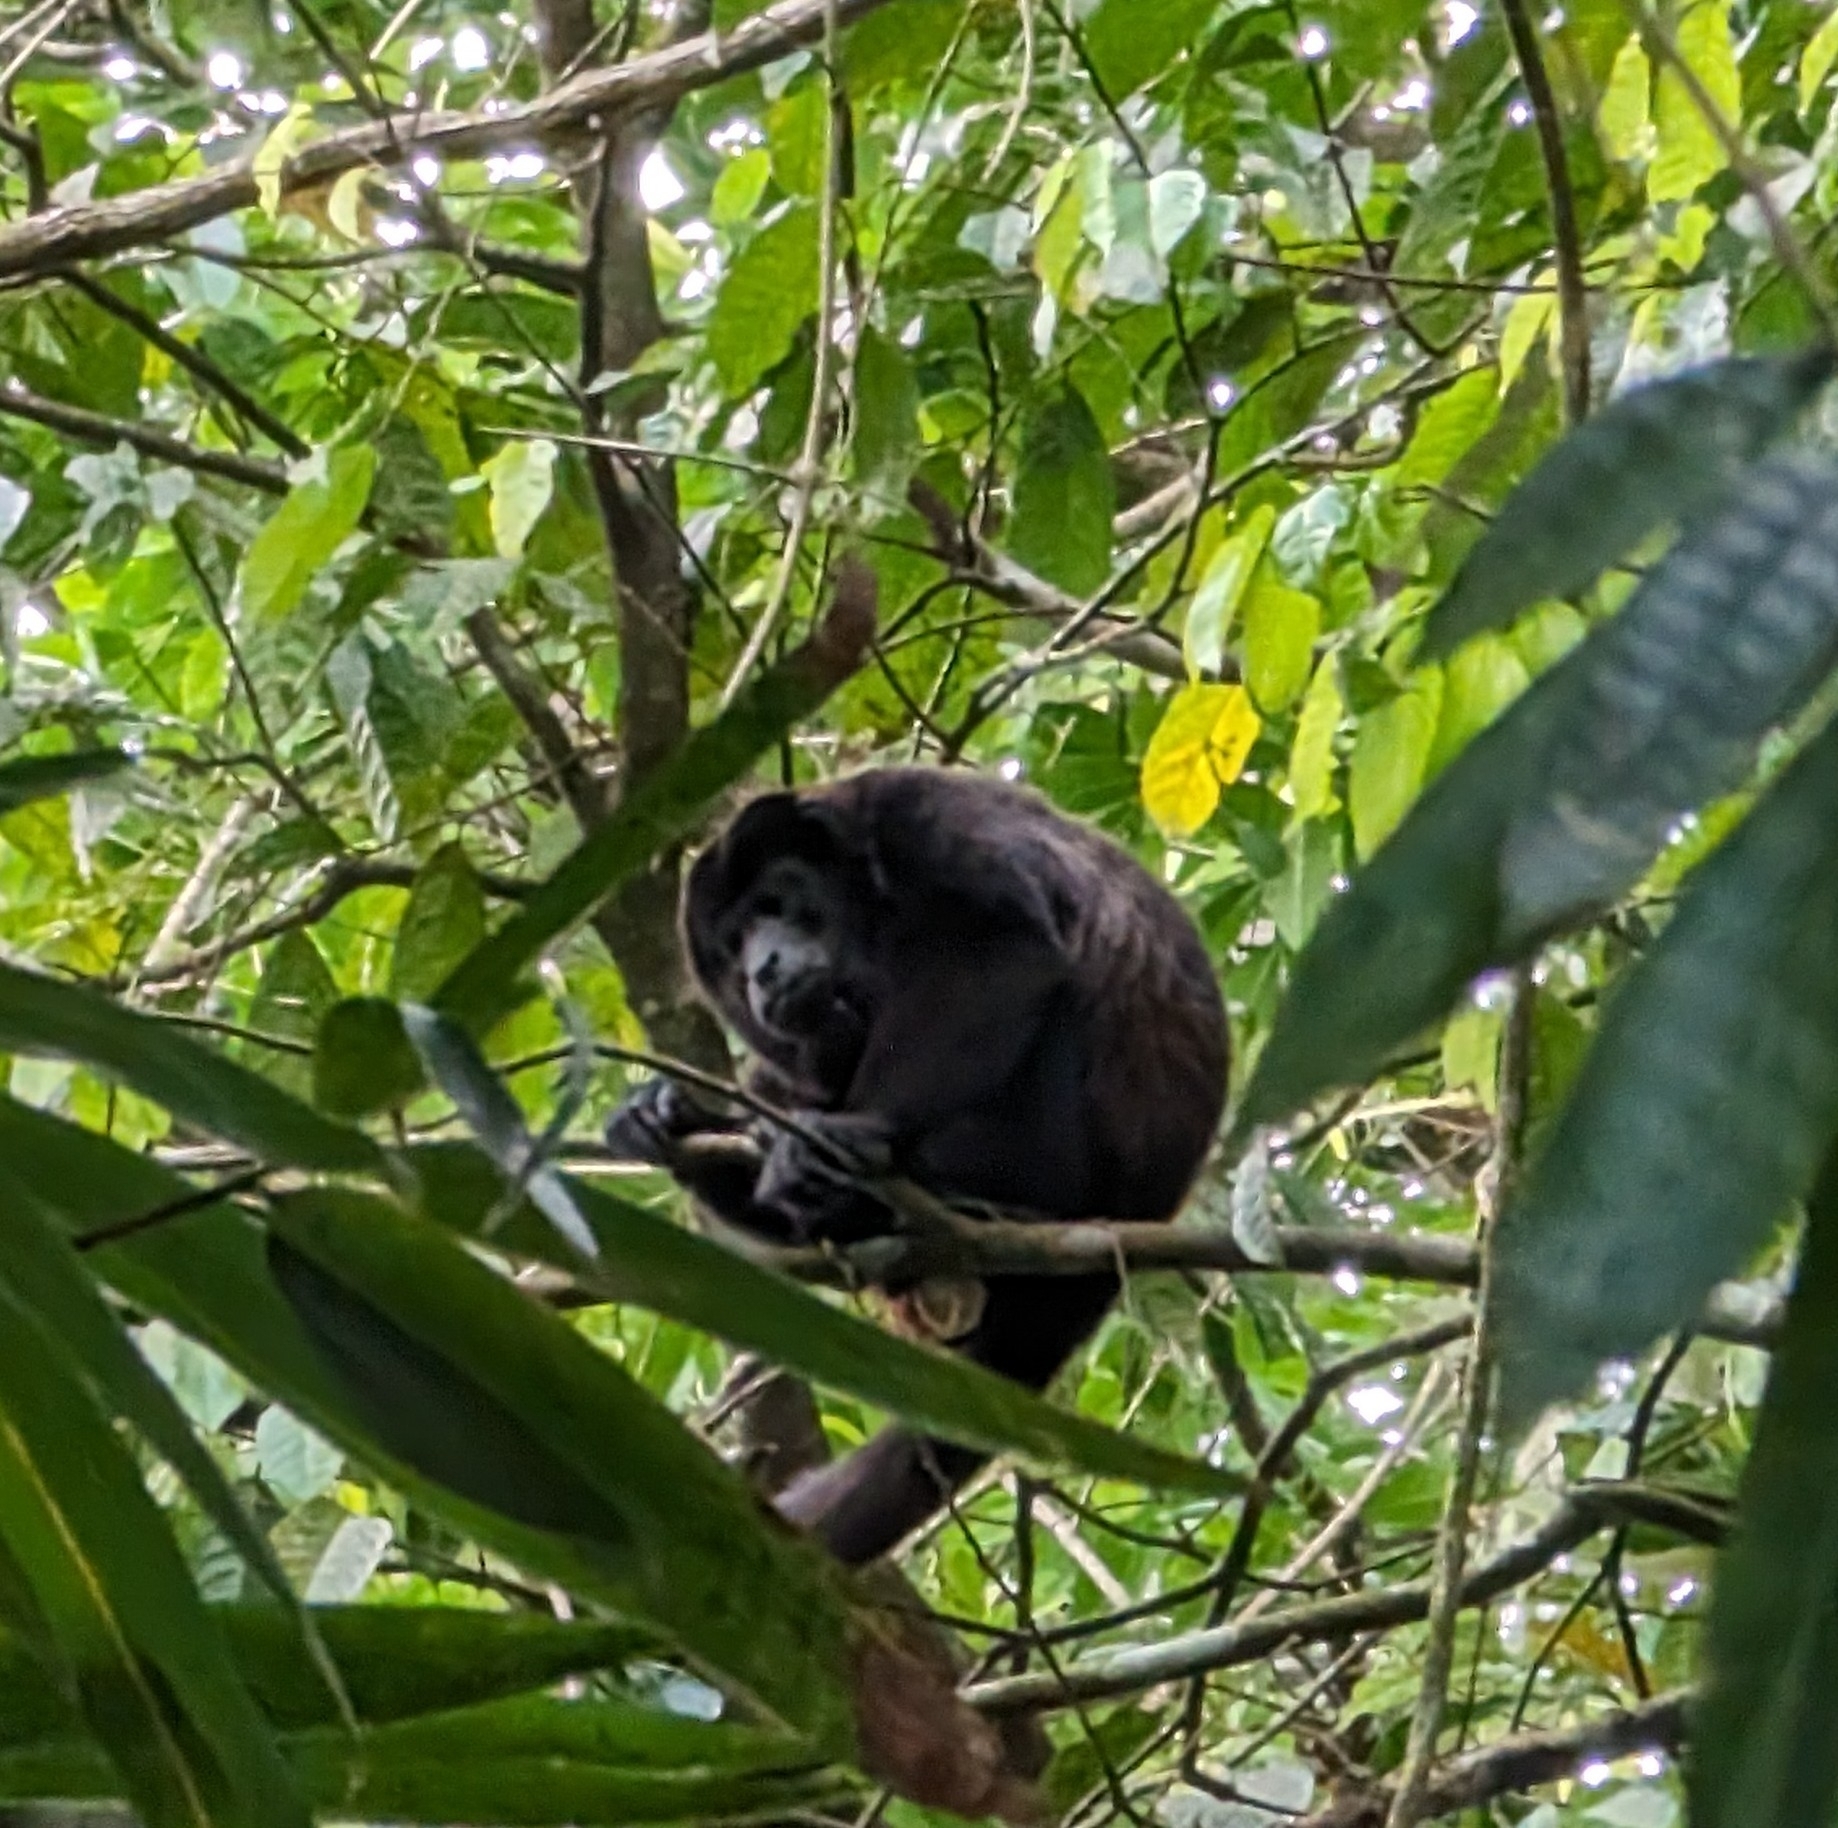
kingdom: Animalia
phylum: Chordata
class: Mammalia
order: Primates
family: Atelidae
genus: Alouatta
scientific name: Alouatta palliata
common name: Mantled howler
